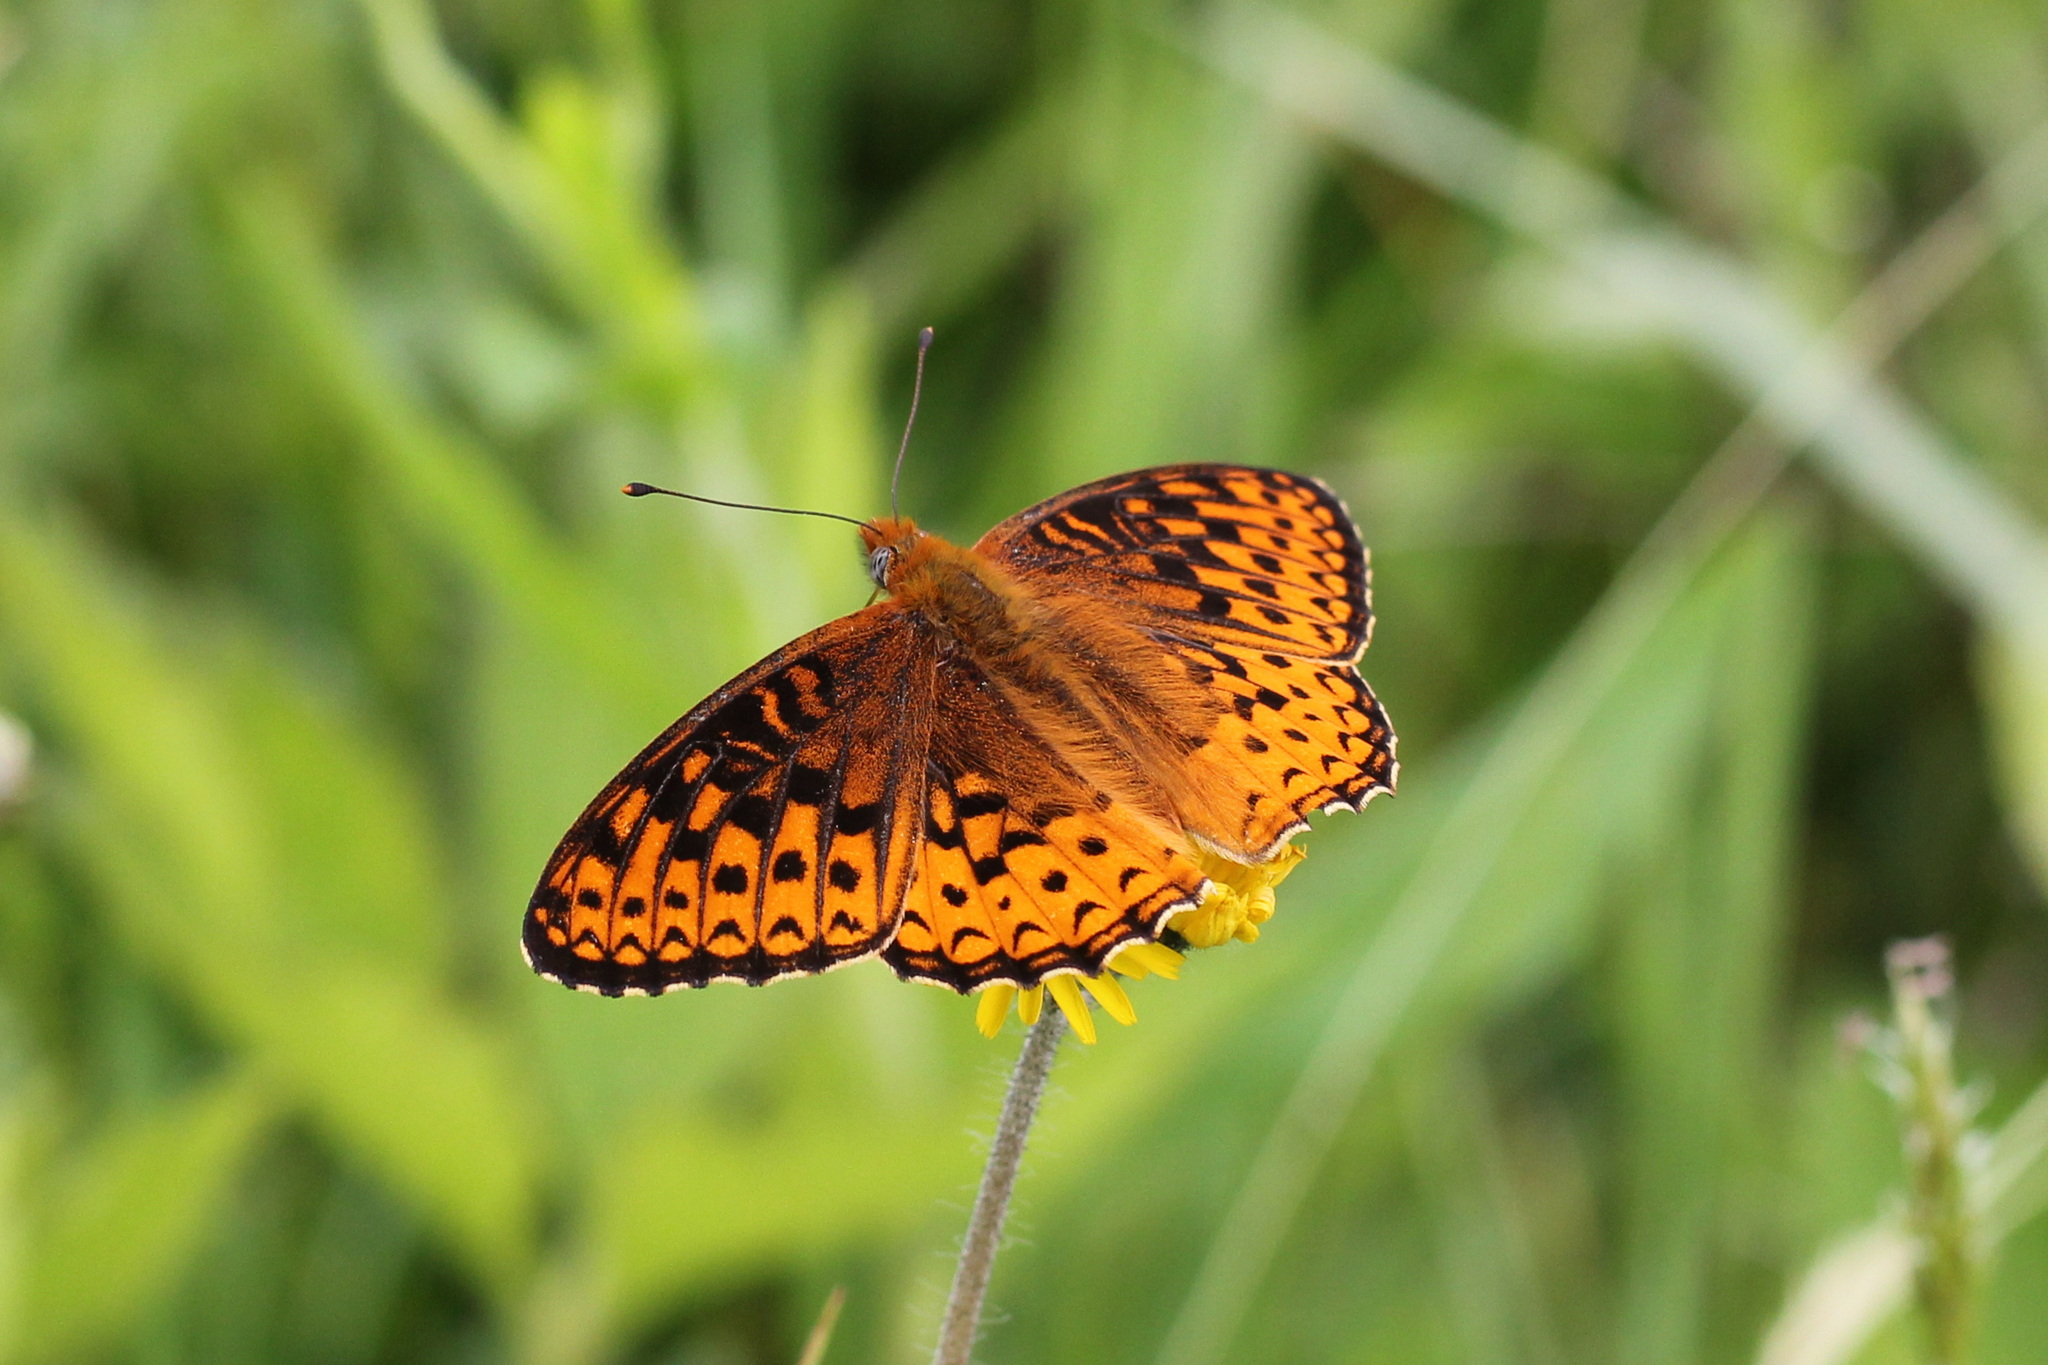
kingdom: Animalia
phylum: Arthropoda
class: Insecta
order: Lepidoptera
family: Nymphalidae
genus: Speyeria
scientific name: Speyeria atlantis
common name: Atlantis fritillary
